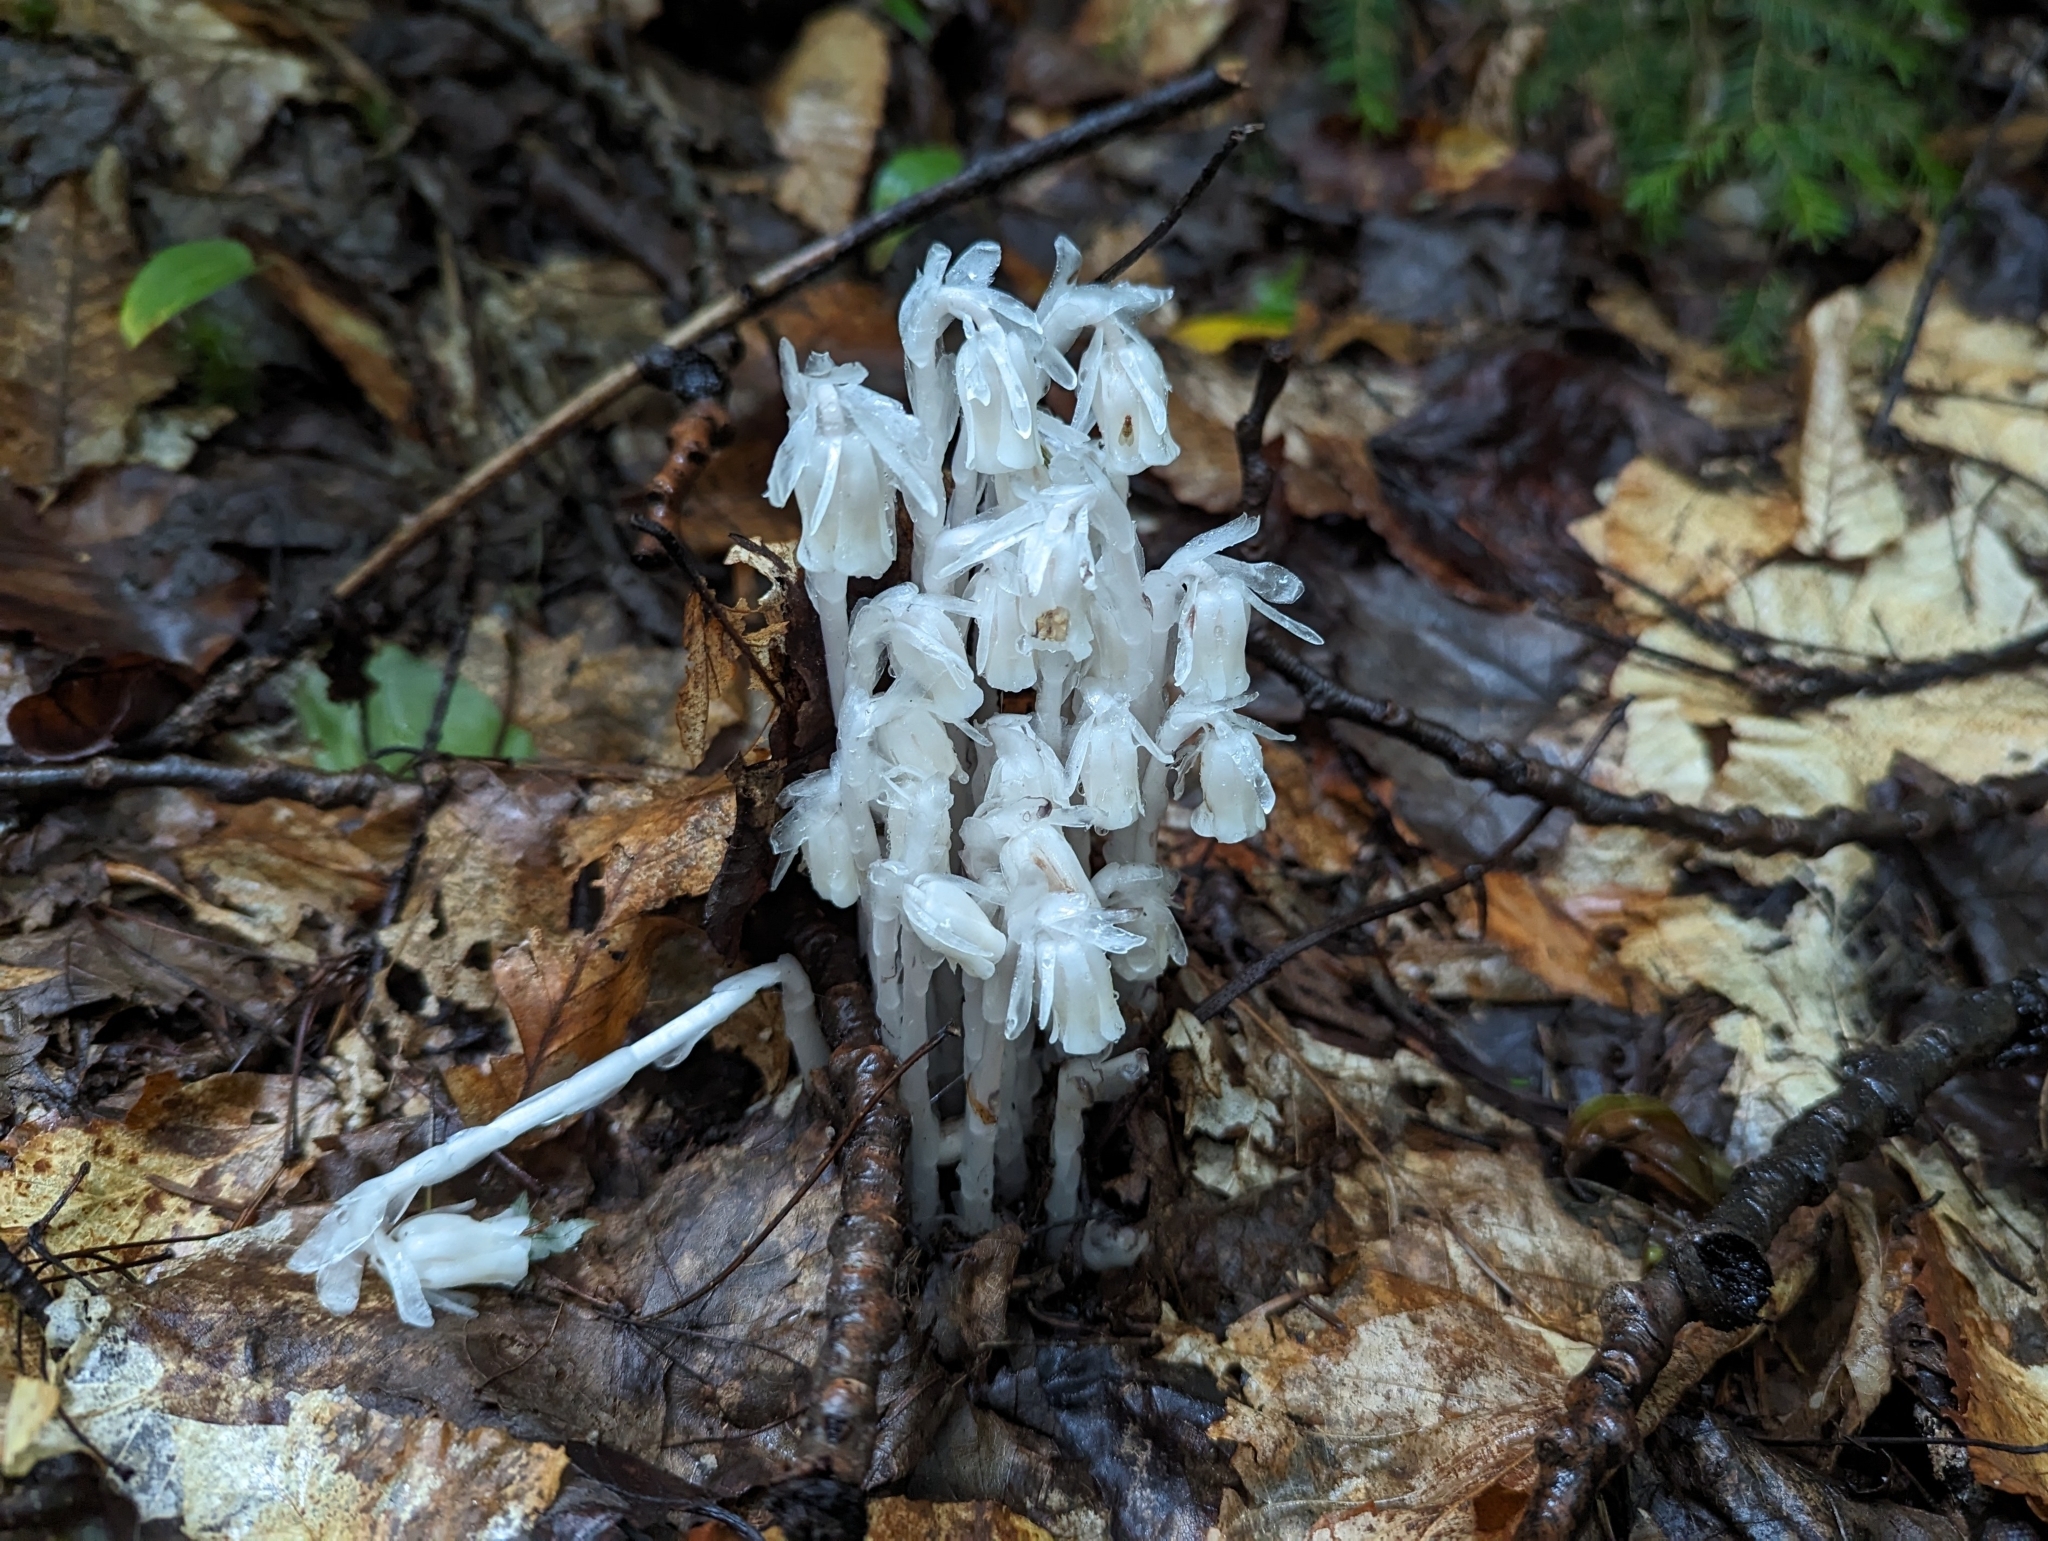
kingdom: Plantae
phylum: Tracheophyta
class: Magnoliopsida
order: Ericales
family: Ericaceae
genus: Monotropa
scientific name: Monotropa uniflora
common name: Convulsion root
